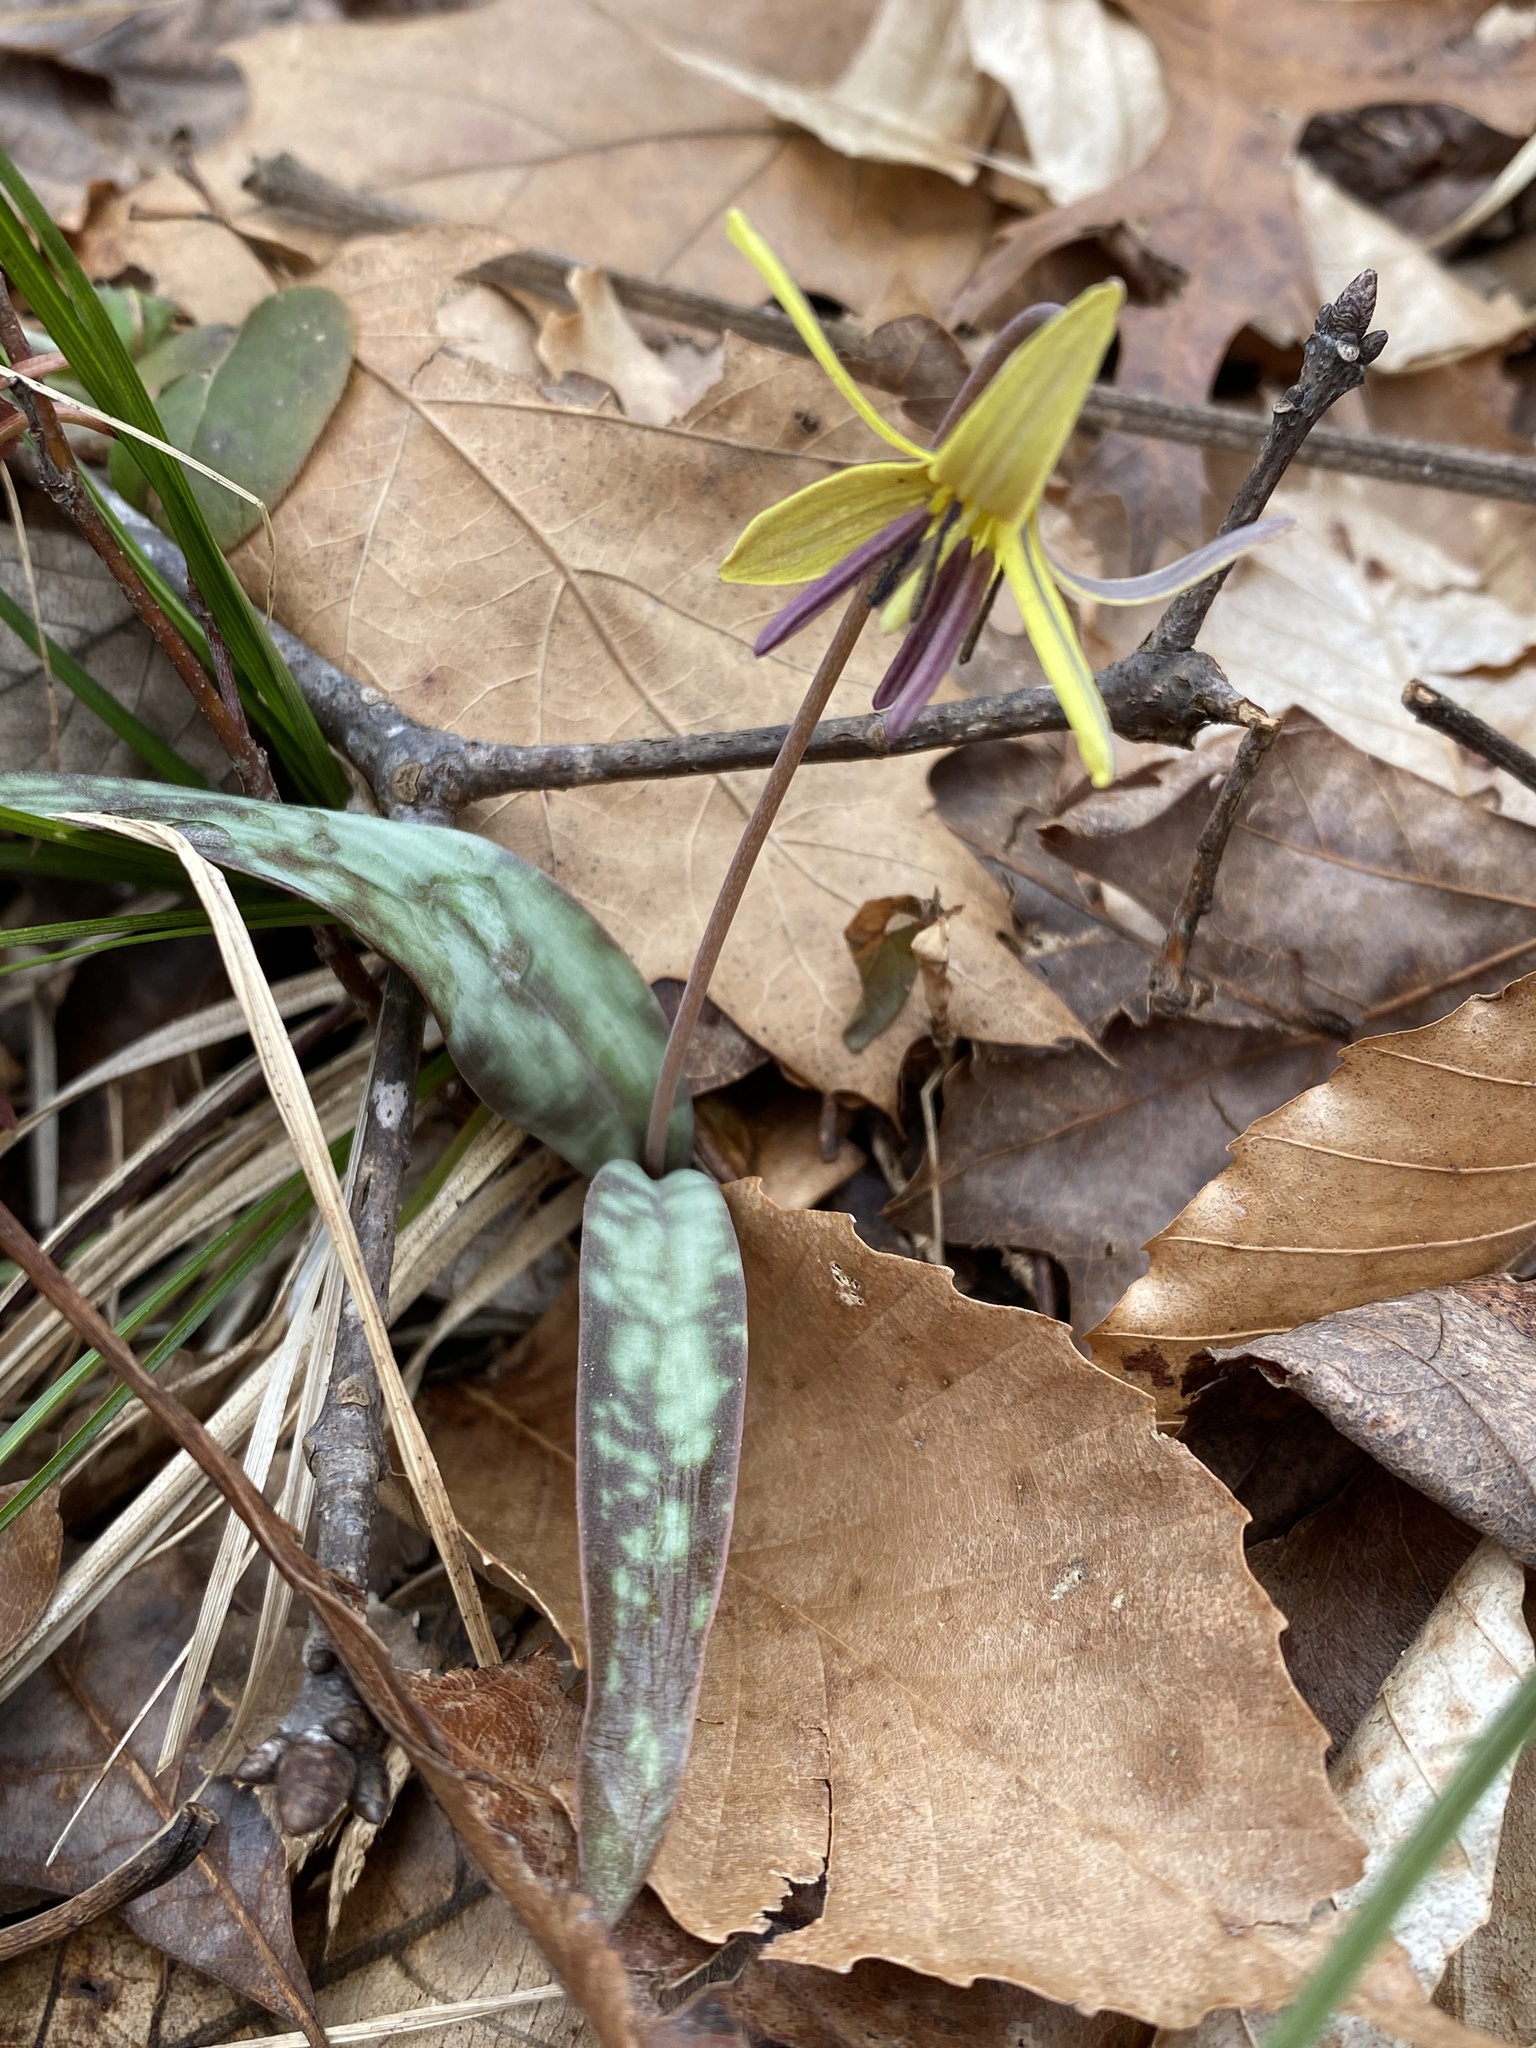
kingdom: Plantae
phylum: Tracheophyta
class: Liliopsida
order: Liliales
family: Liliaceae
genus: Erythronium
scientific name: Erythronium umbilicatum
